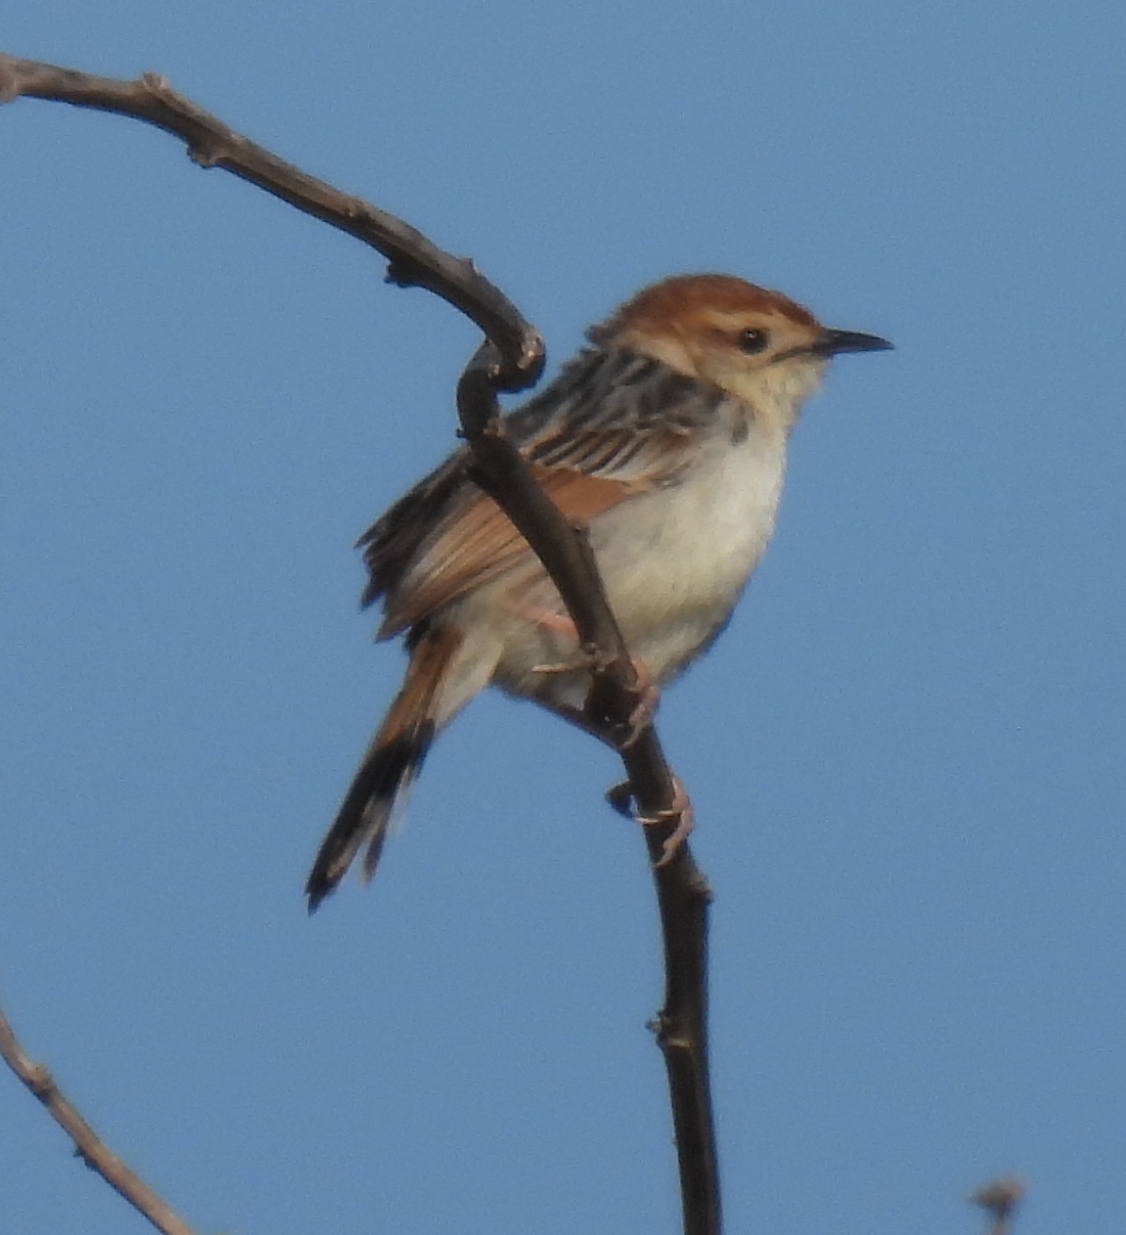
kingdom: Animalia
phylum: Chordata
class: Aves
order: Passeriformes
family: Cisticolidae
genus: Cisticola
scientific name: Cisticola tinniens
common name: Levaillant's cisticola
